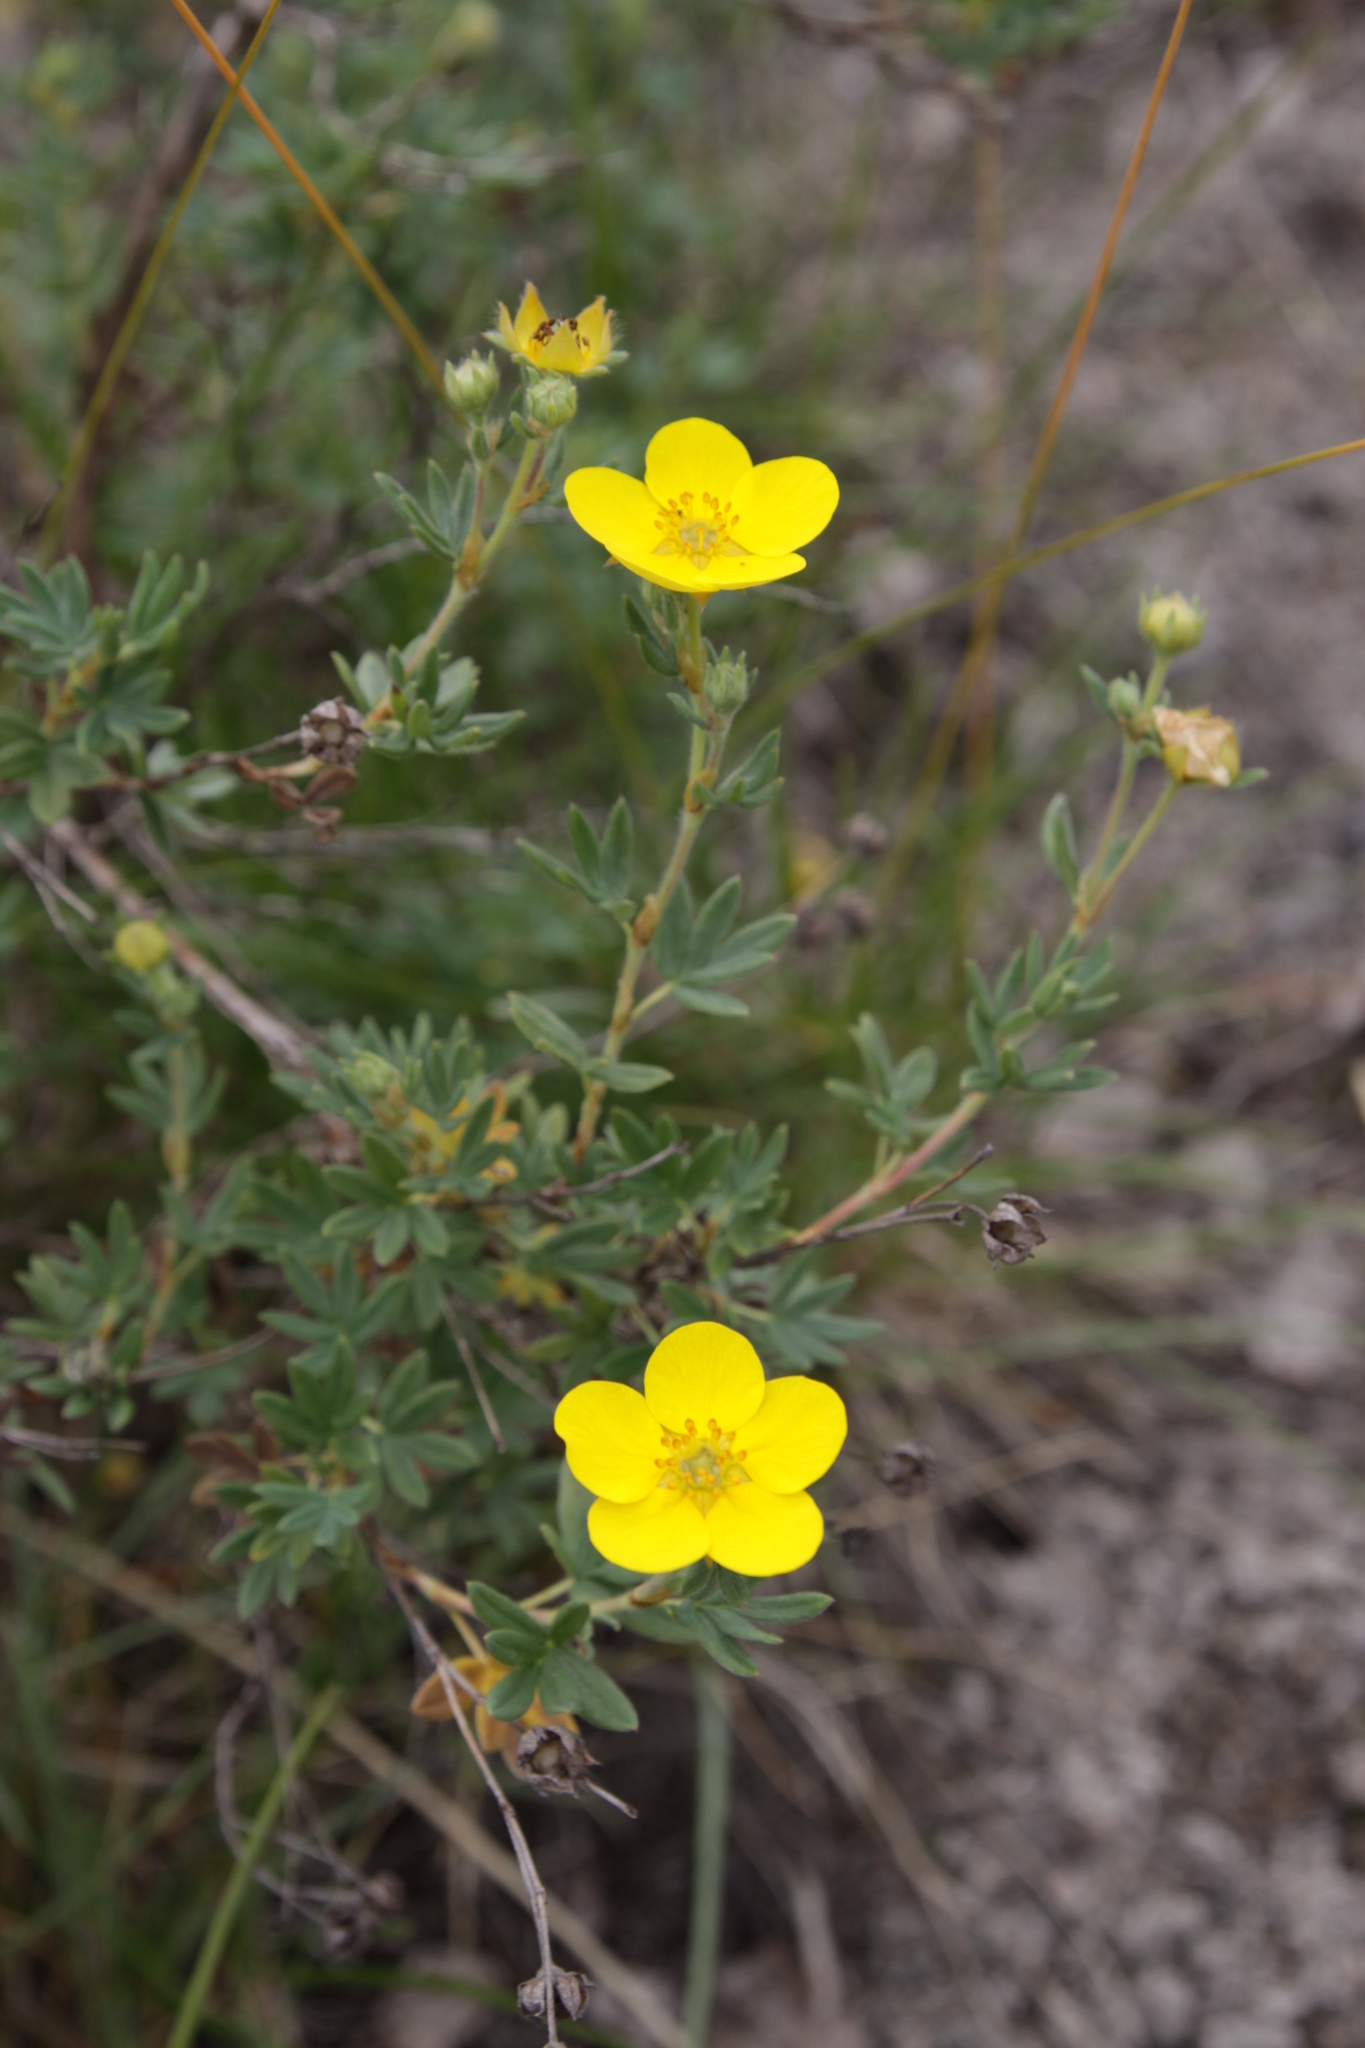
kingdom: Plantae
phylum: Tracheophyta
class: Magnoliopsida
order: Rosales
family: Rosaceae
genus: Dasiphora
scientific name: Dasiphora fruticosa
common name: Shrubby cinquefoil
